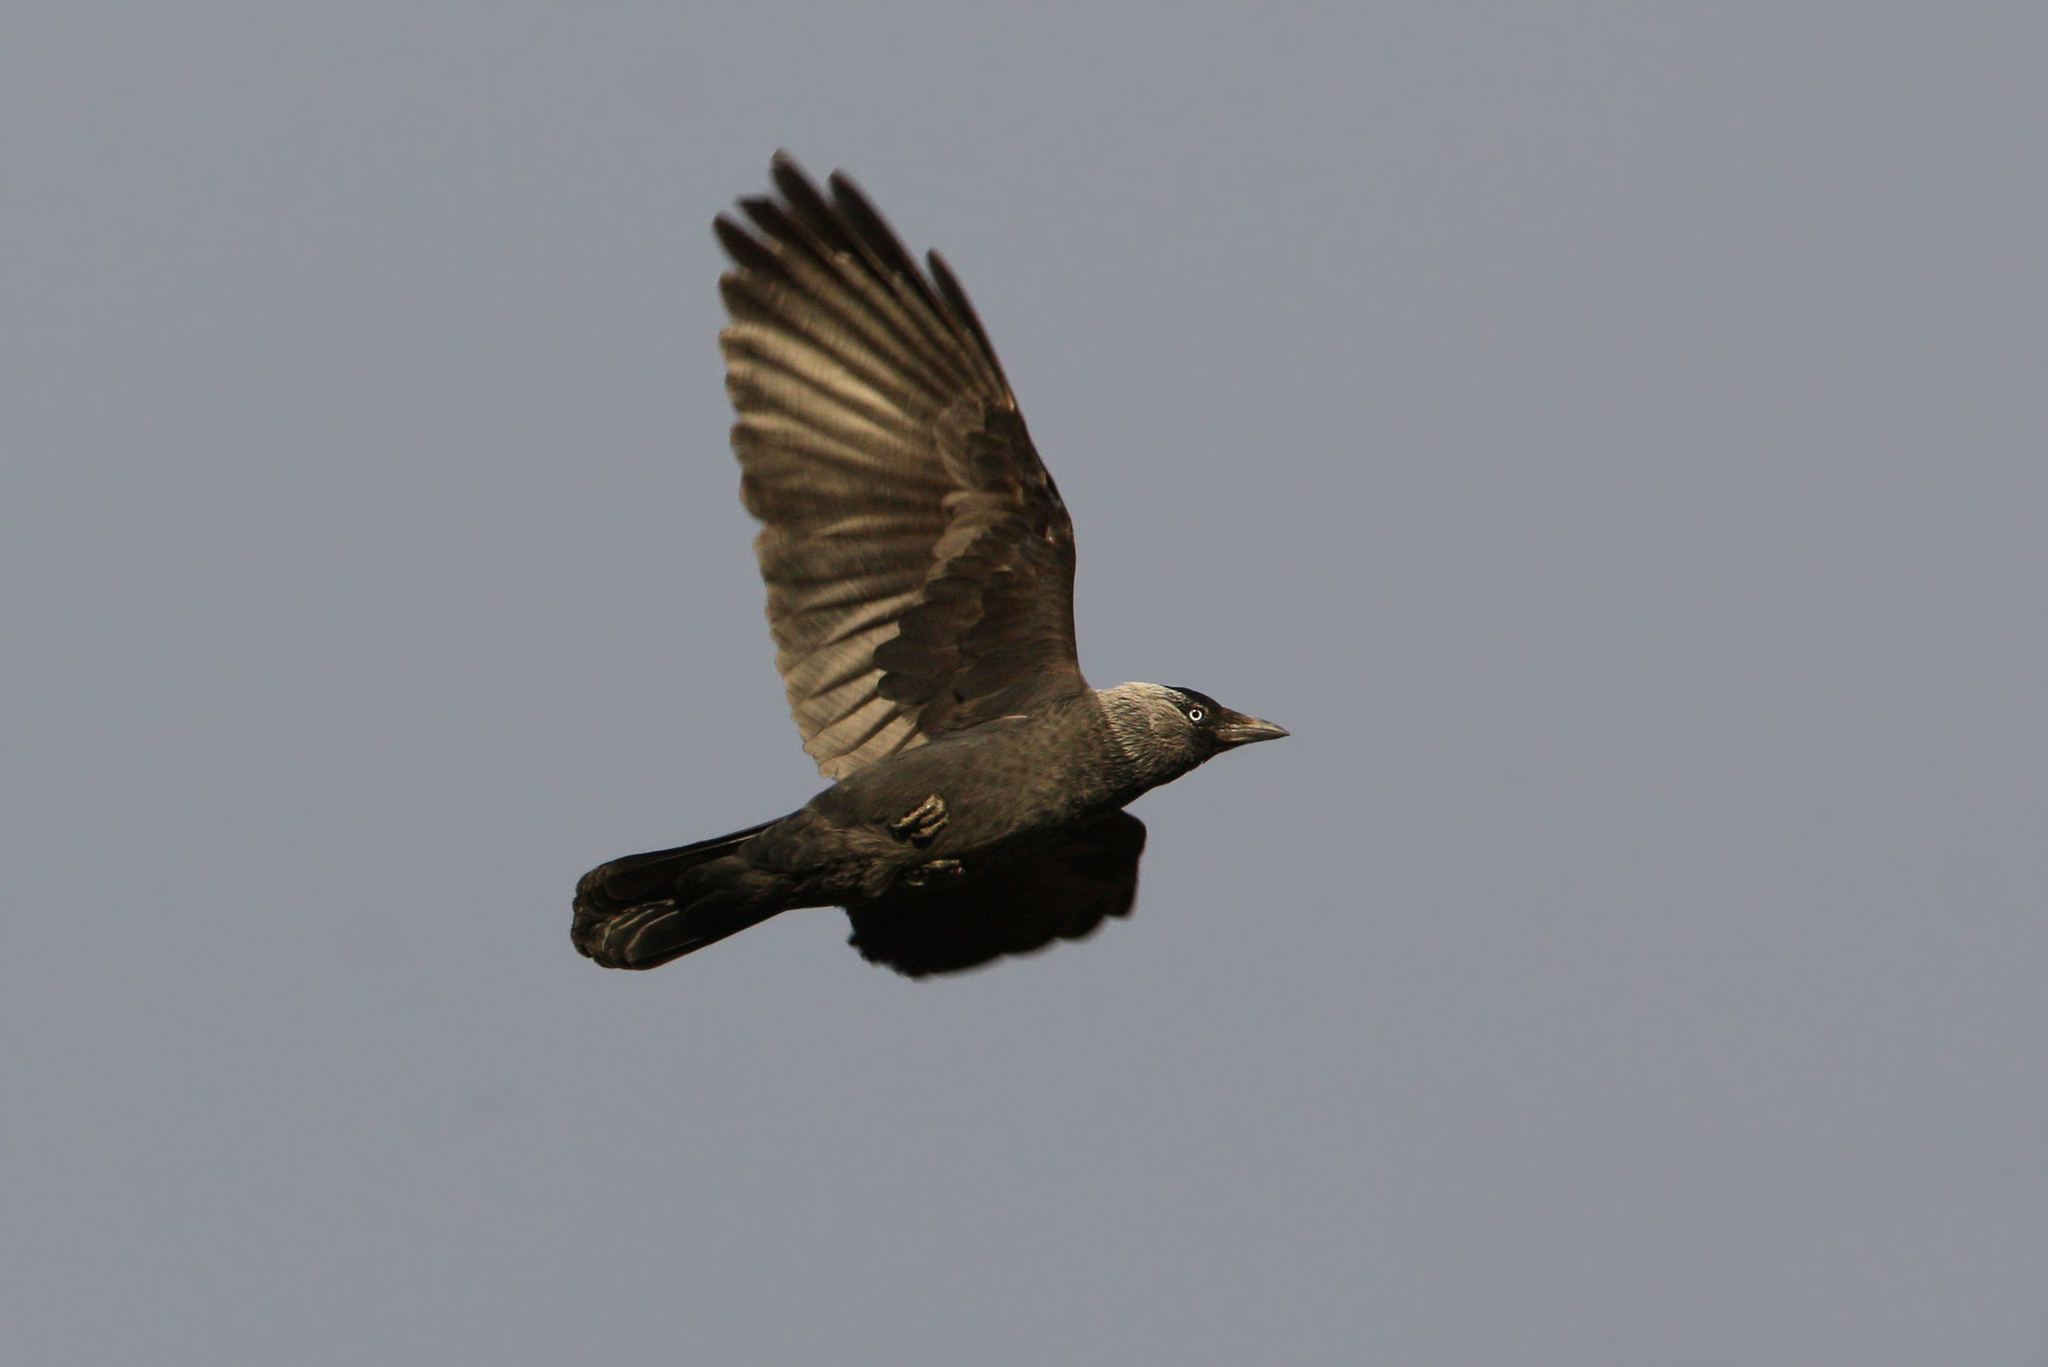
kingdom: Animalia
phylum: Chordata
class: Aves
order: Passeriformes
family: Corvidae
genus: Coloeus
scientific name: Coloeus monedula
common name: Western jackdaw
